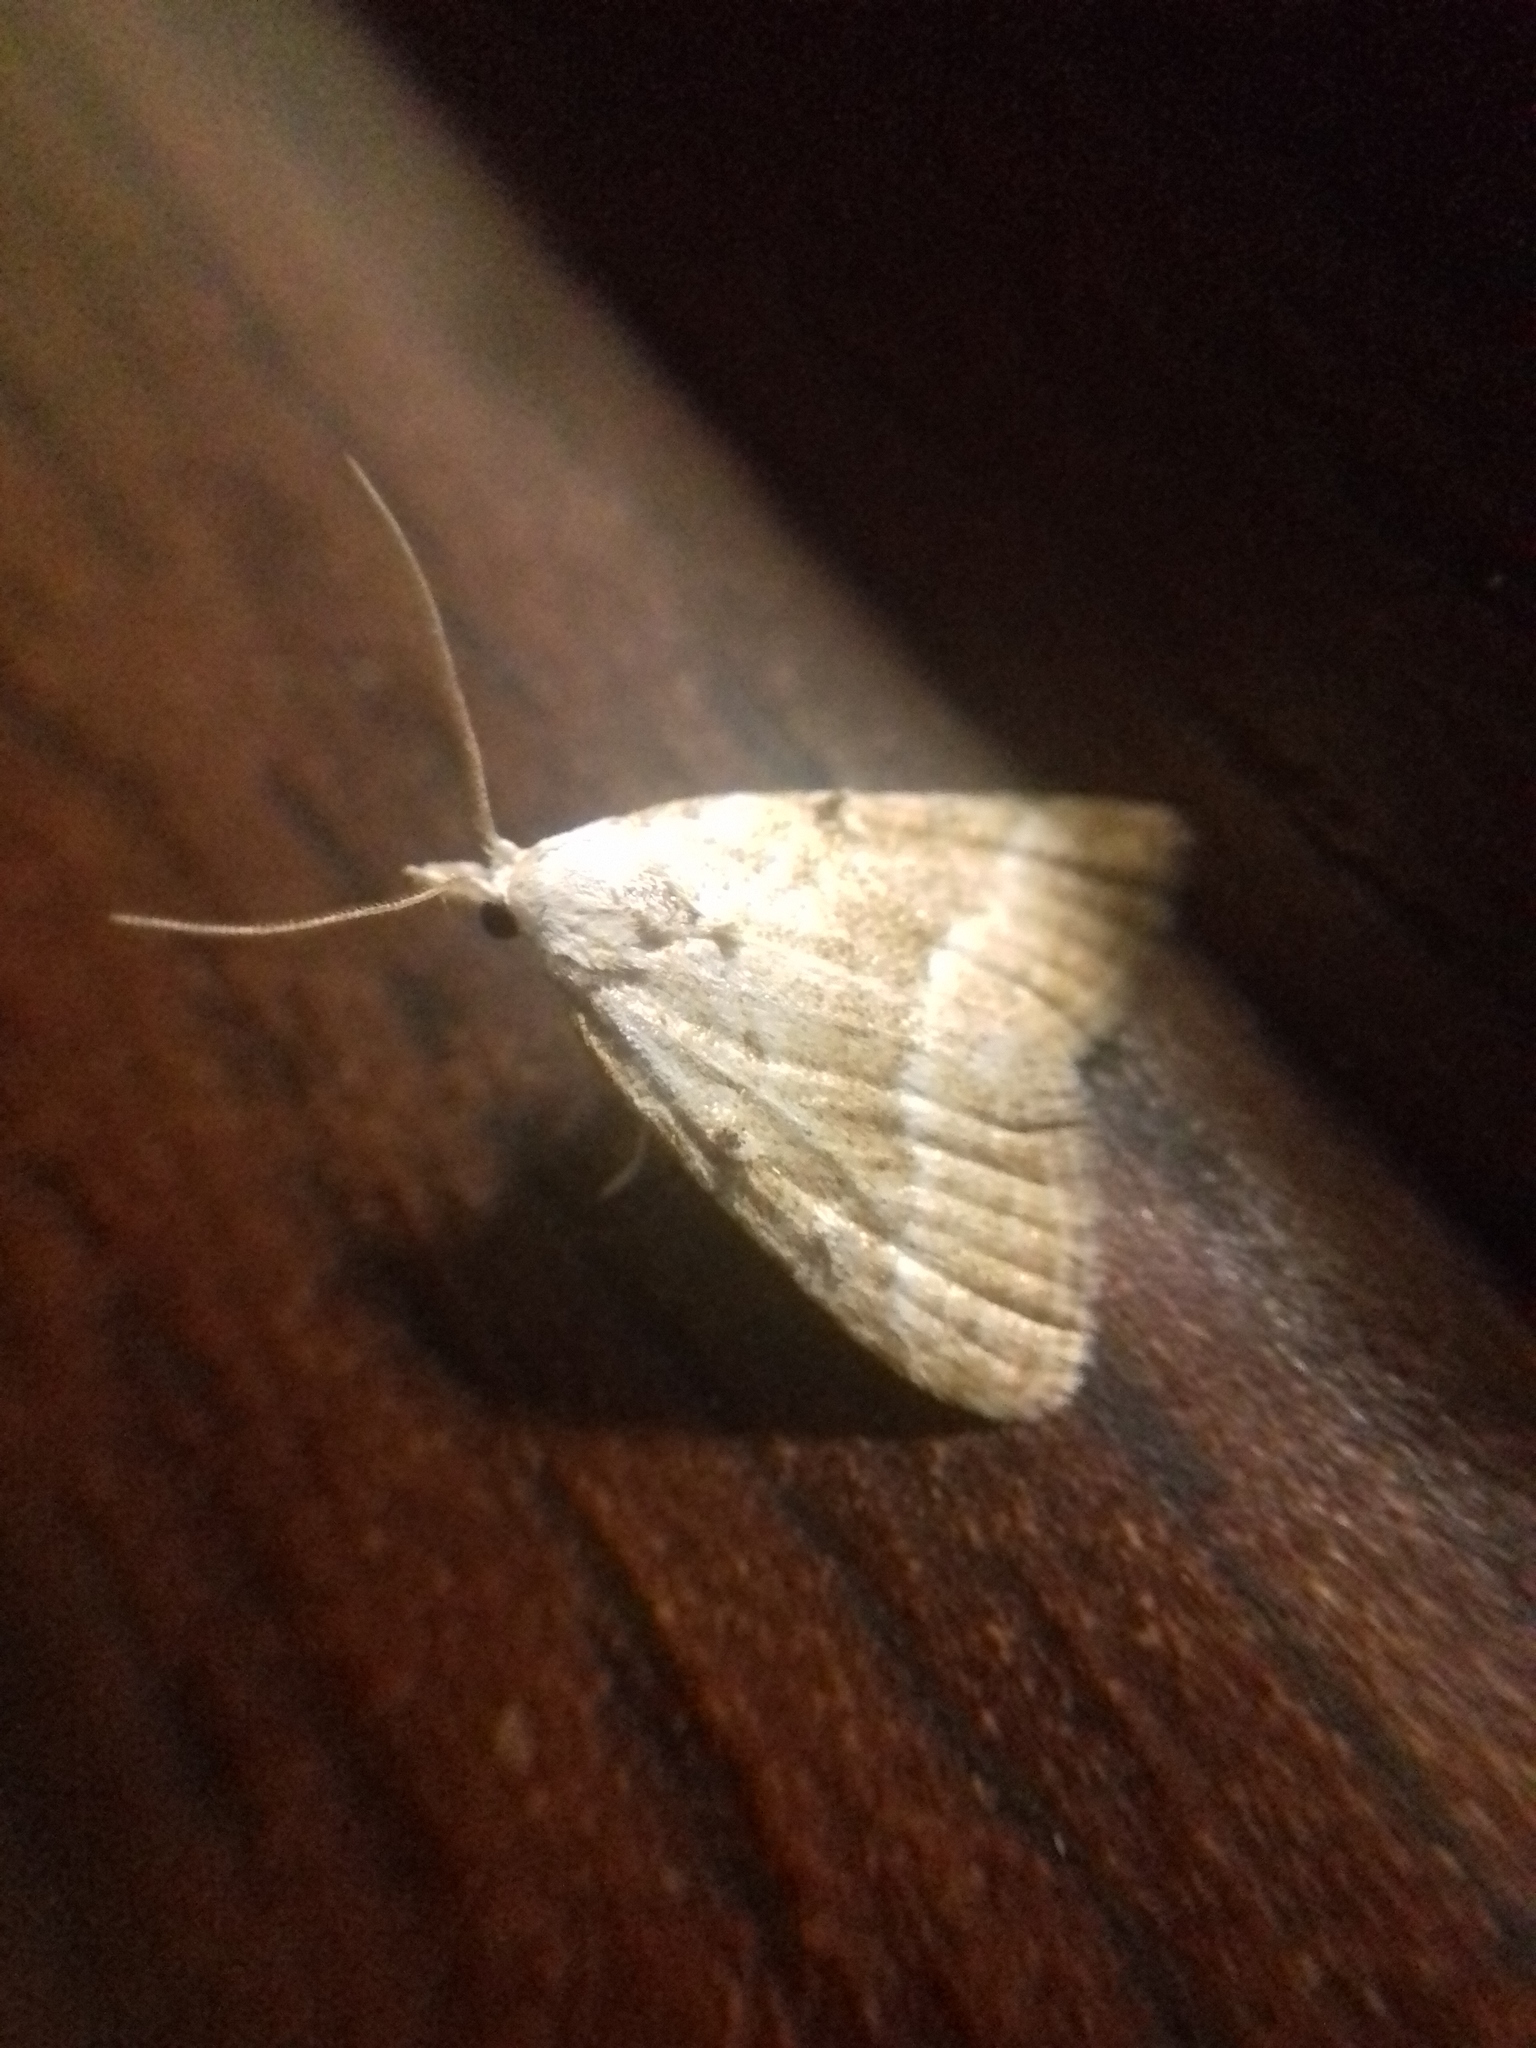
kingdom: Animalia
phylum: Arthropoda
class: Insecta
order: Lepidoptera
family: Nolidae
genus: Nola
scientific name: Nola aerugula
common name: Scarce black arches
